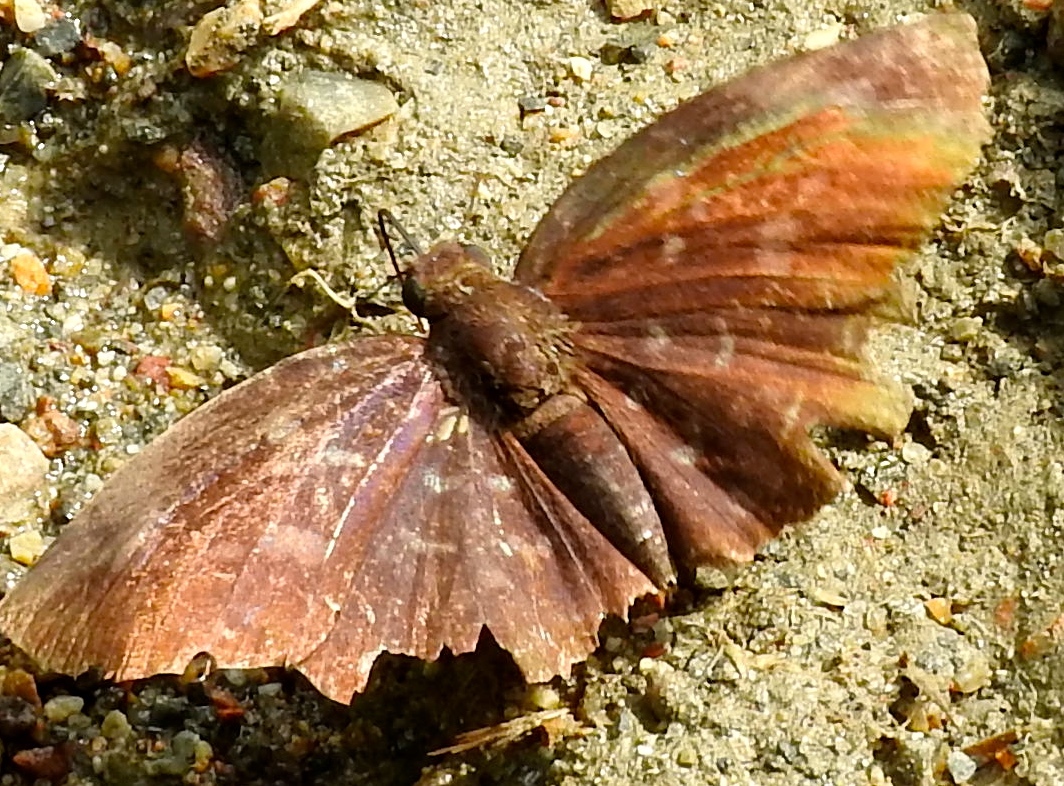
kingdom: Animalia
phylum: Arthropoda
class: Insecta
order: Lepidoptera
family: Hesperiidae
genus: Achlyodes
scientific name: Achlyodes thraso
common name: Sickle-winged skipper
